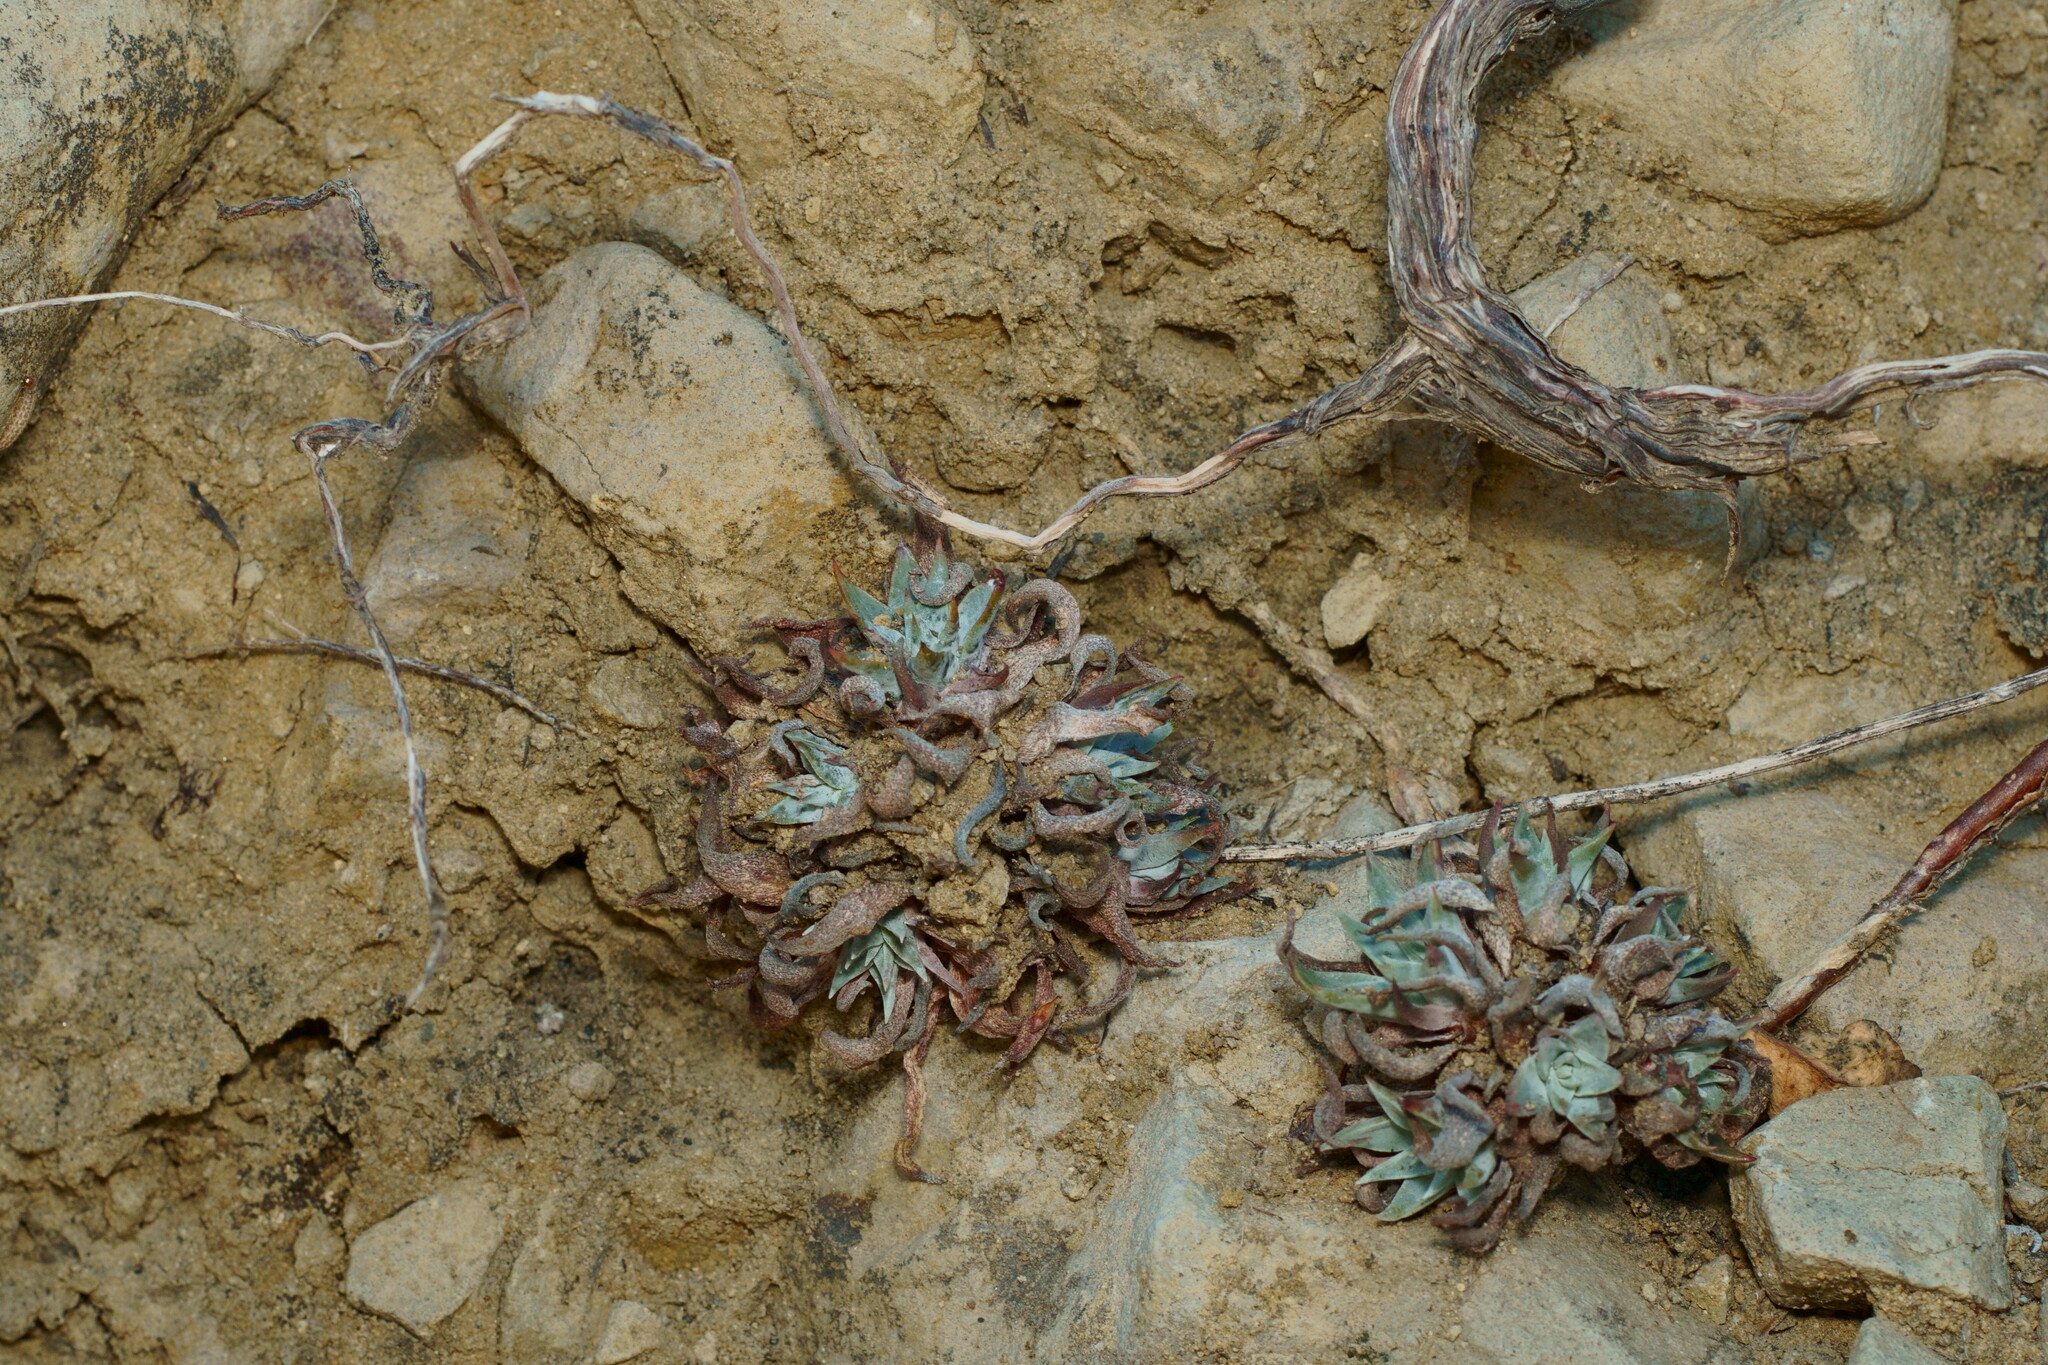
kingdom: Plantae
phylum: Tracheophyta
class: Magnoliopsida
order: Saxifragales
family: Crassulaceae
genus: Dudleya
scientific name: Dudleya cymosa
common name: Canyon dudleya
